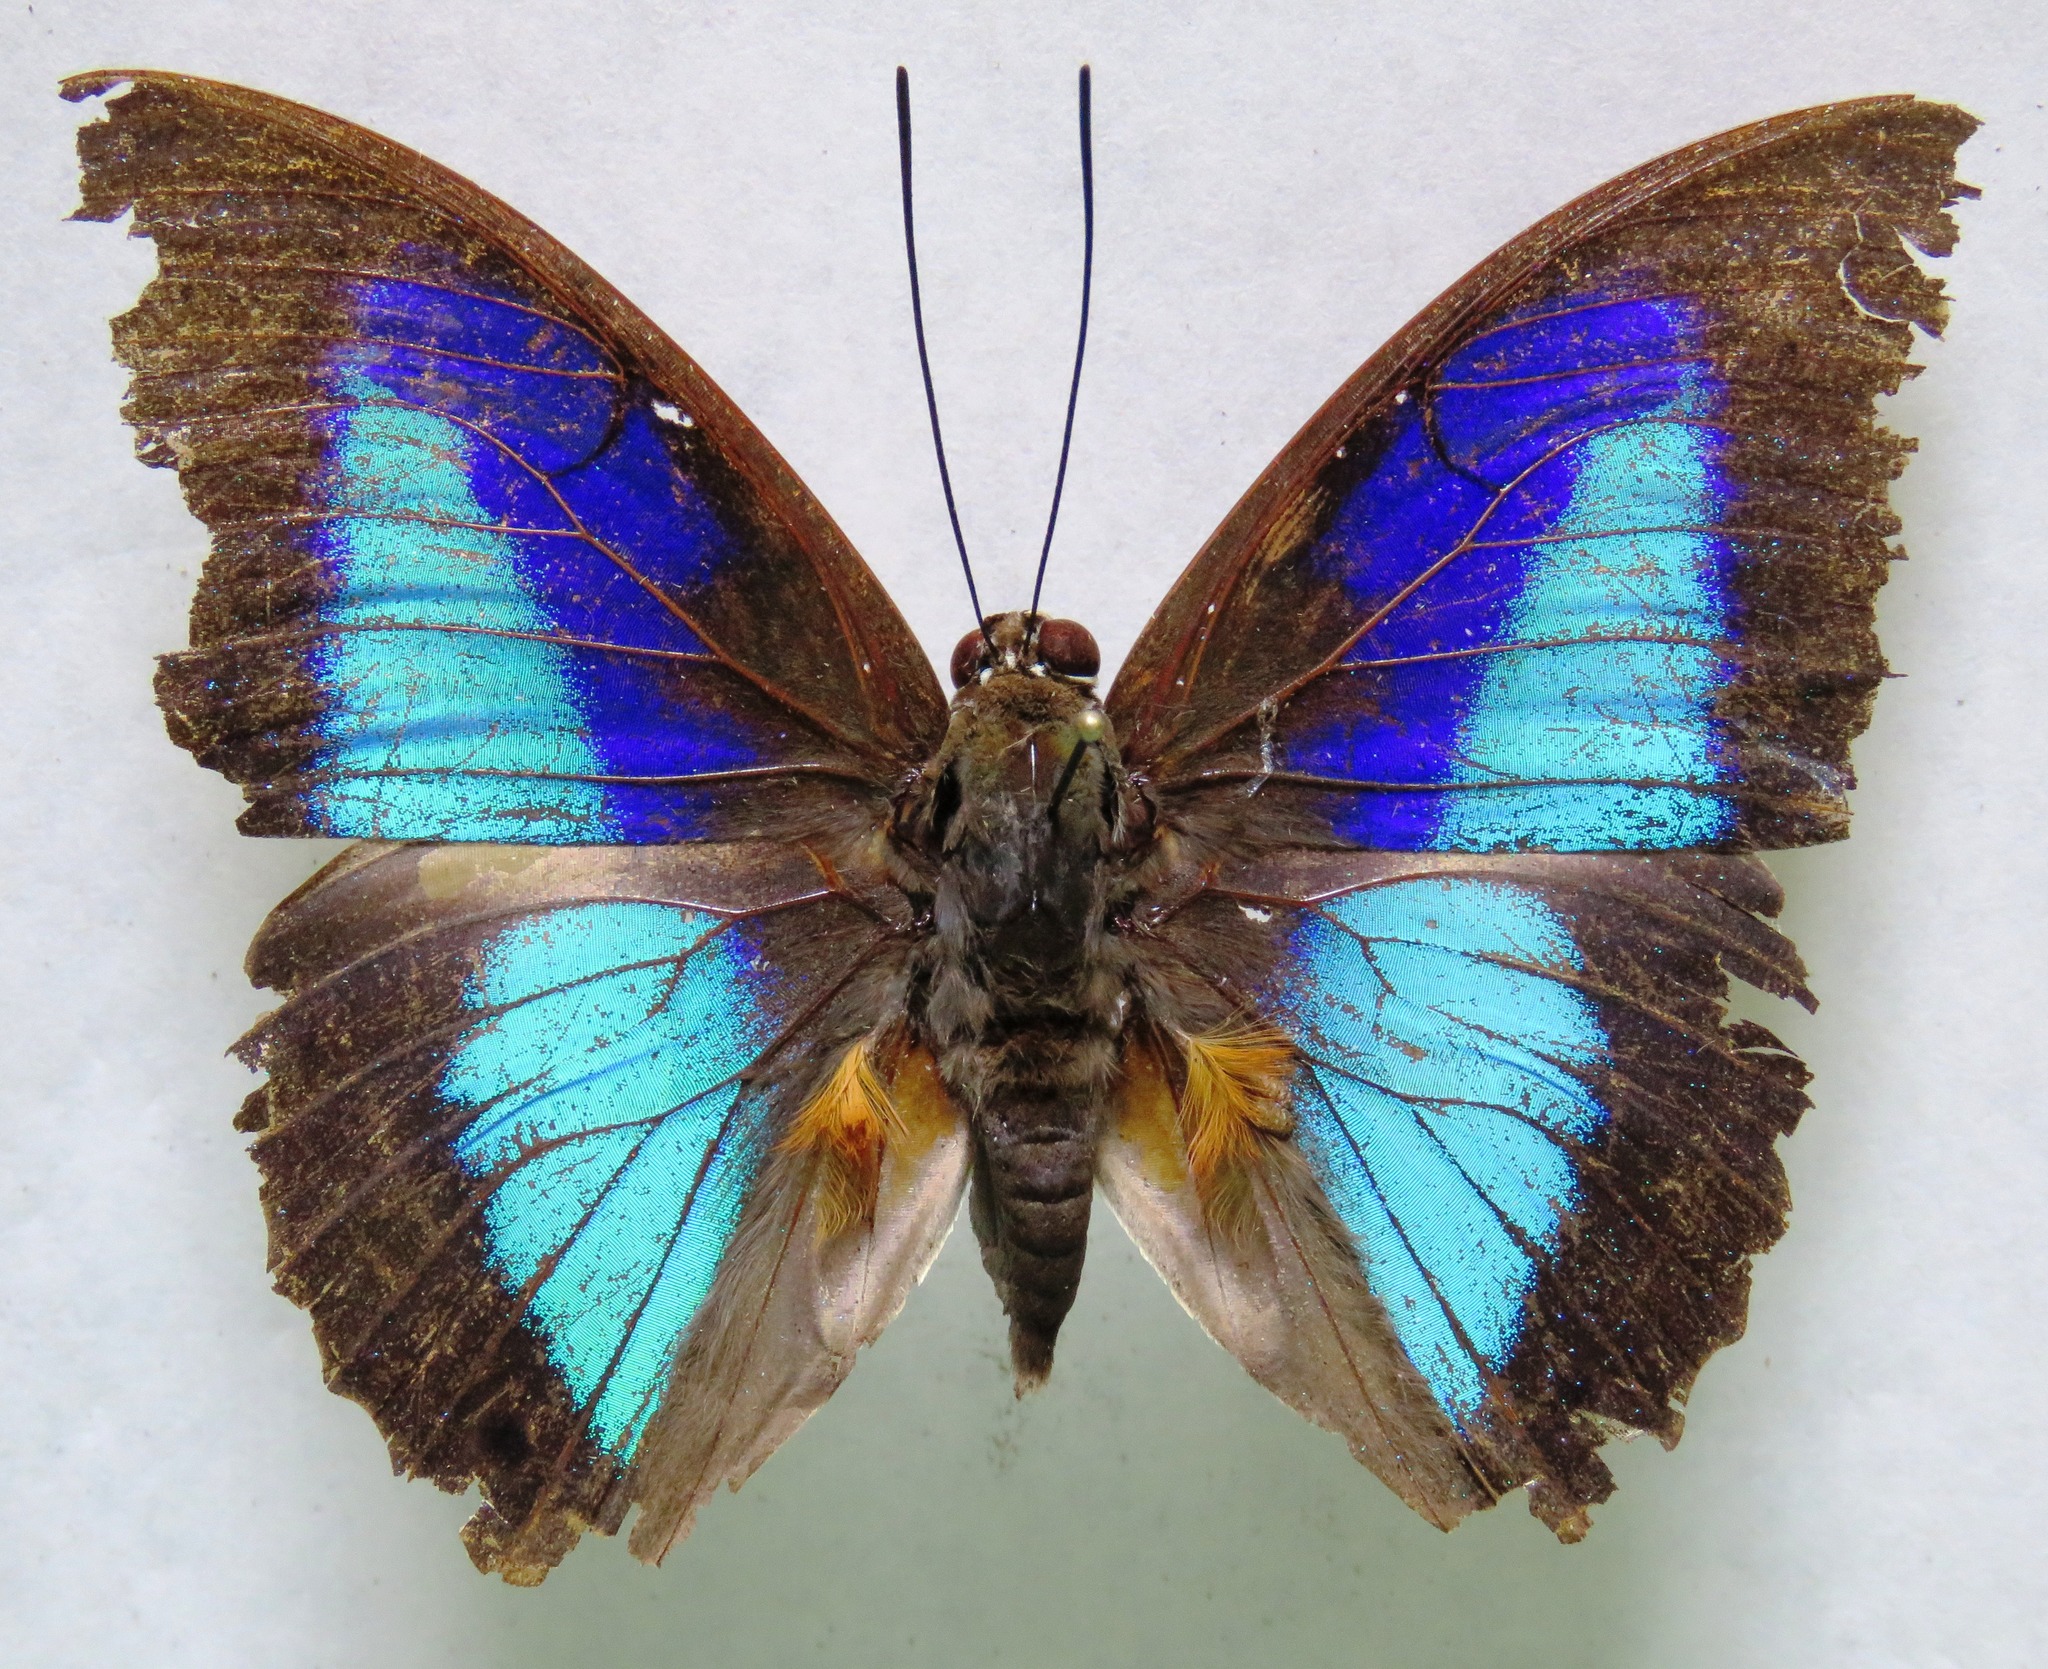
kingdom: Animalia
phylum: Arthropoda
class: Insecta
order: Lepidoptera
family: Nymphalidae
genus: Prepona
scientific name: Prepona laertes
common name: Butterfly
